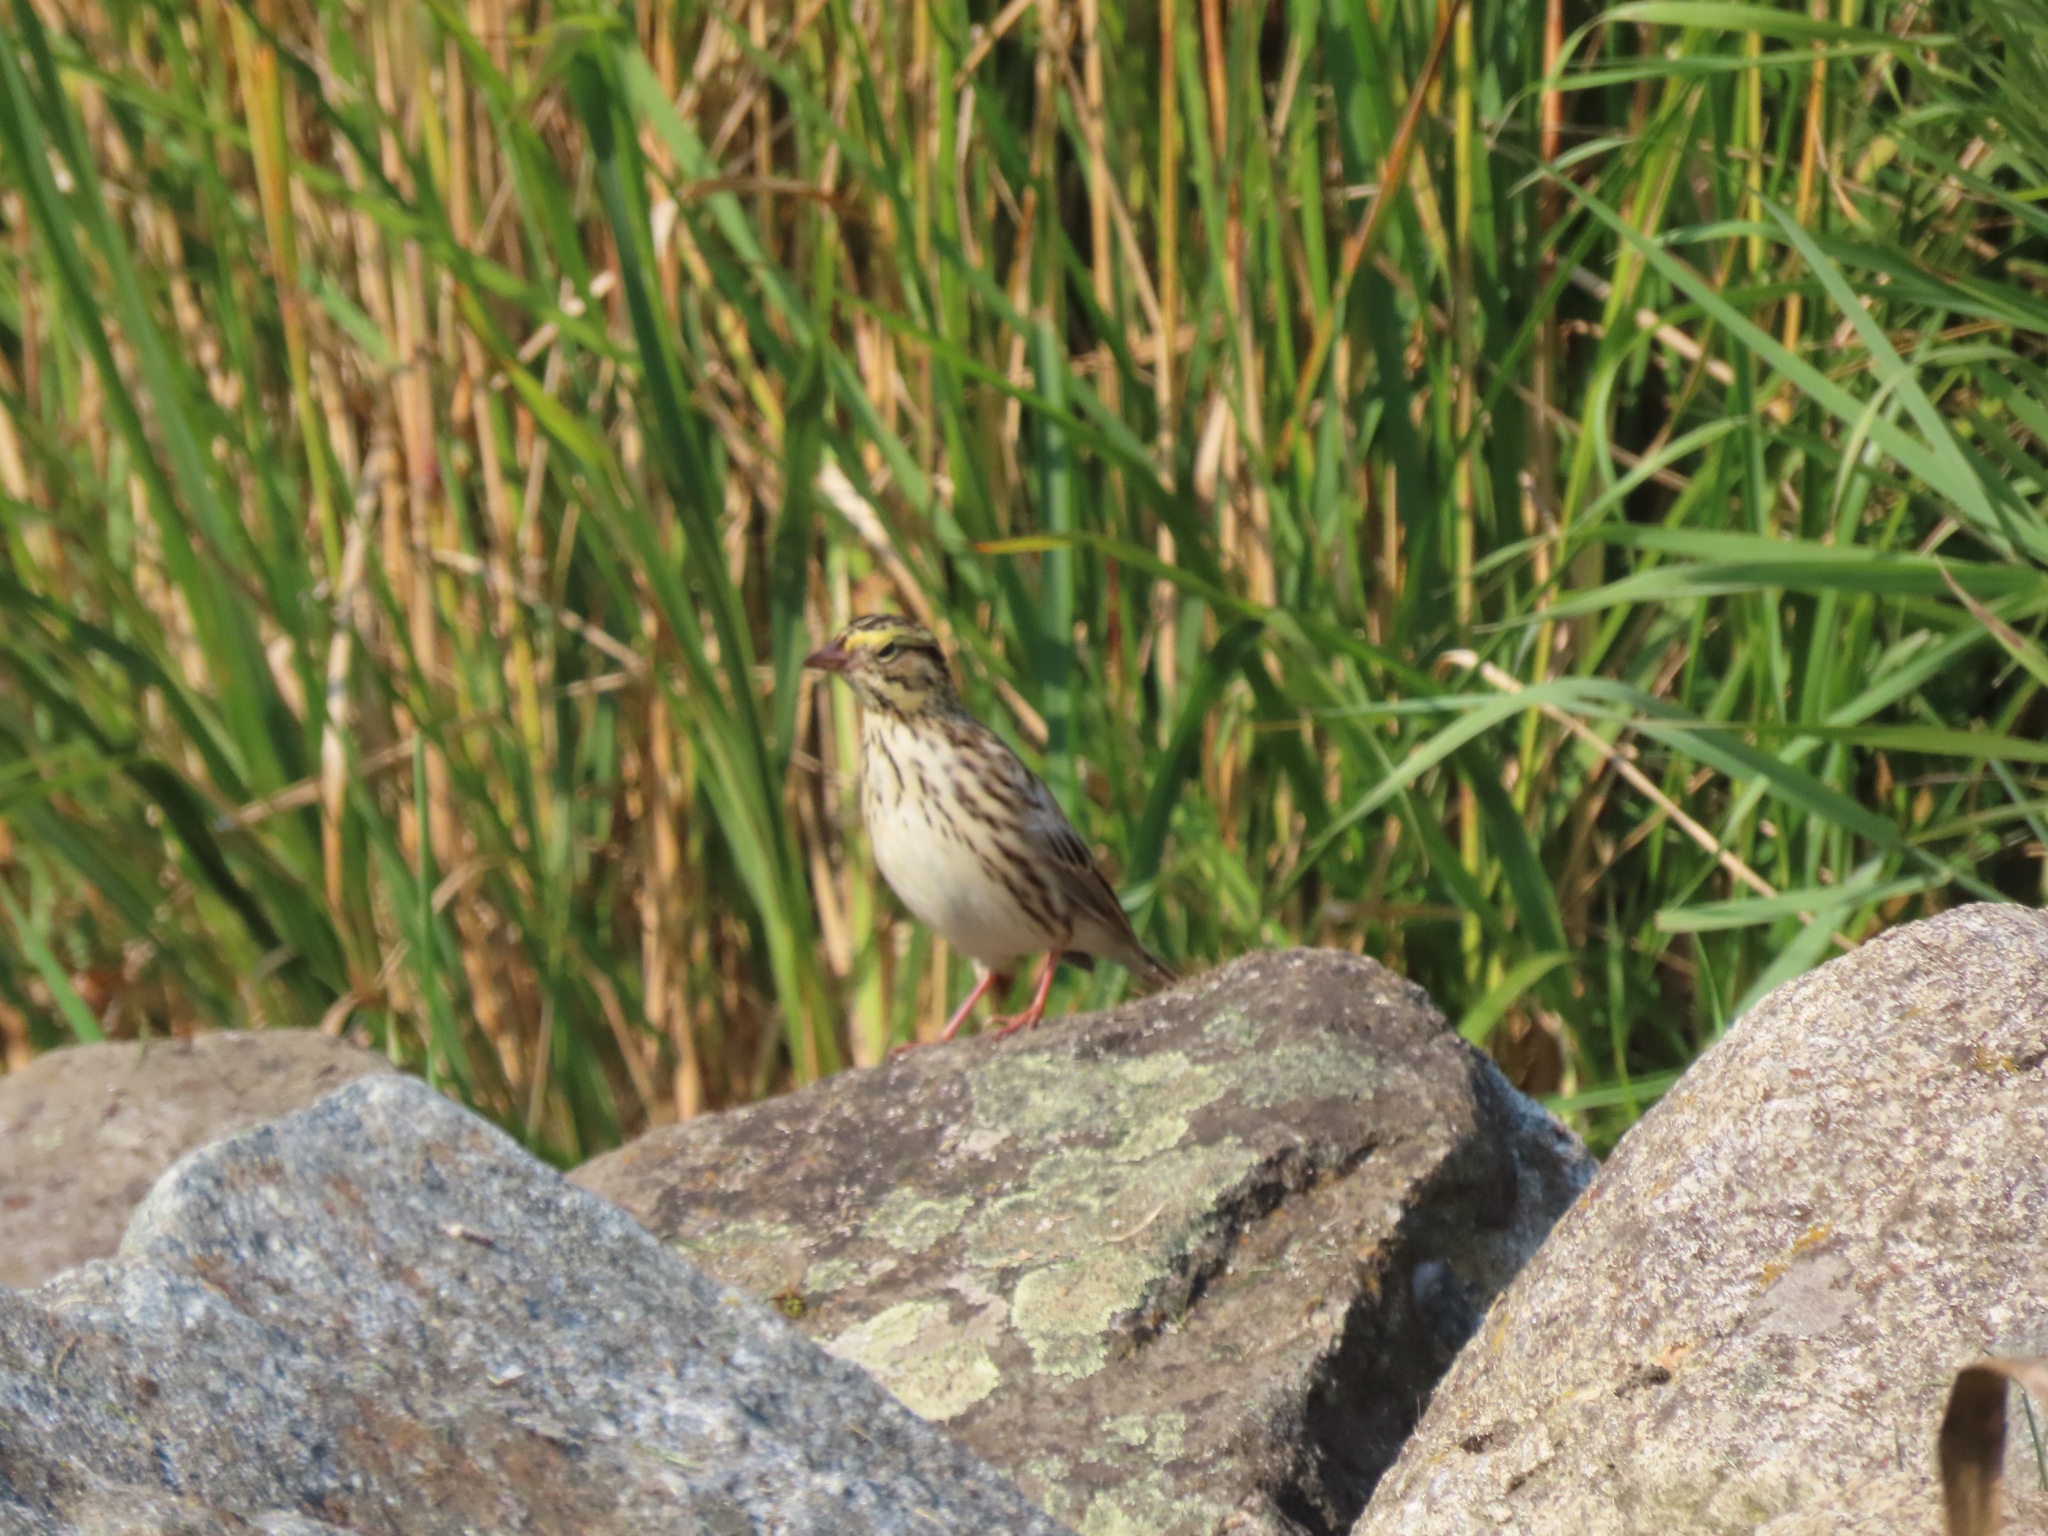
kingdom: Animalia
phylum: Chordata
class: Aves
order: Passeriformes
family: Passerellidae
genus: Passerculus
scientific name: Passerculus sandwichensis
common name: Savannah sparrow
